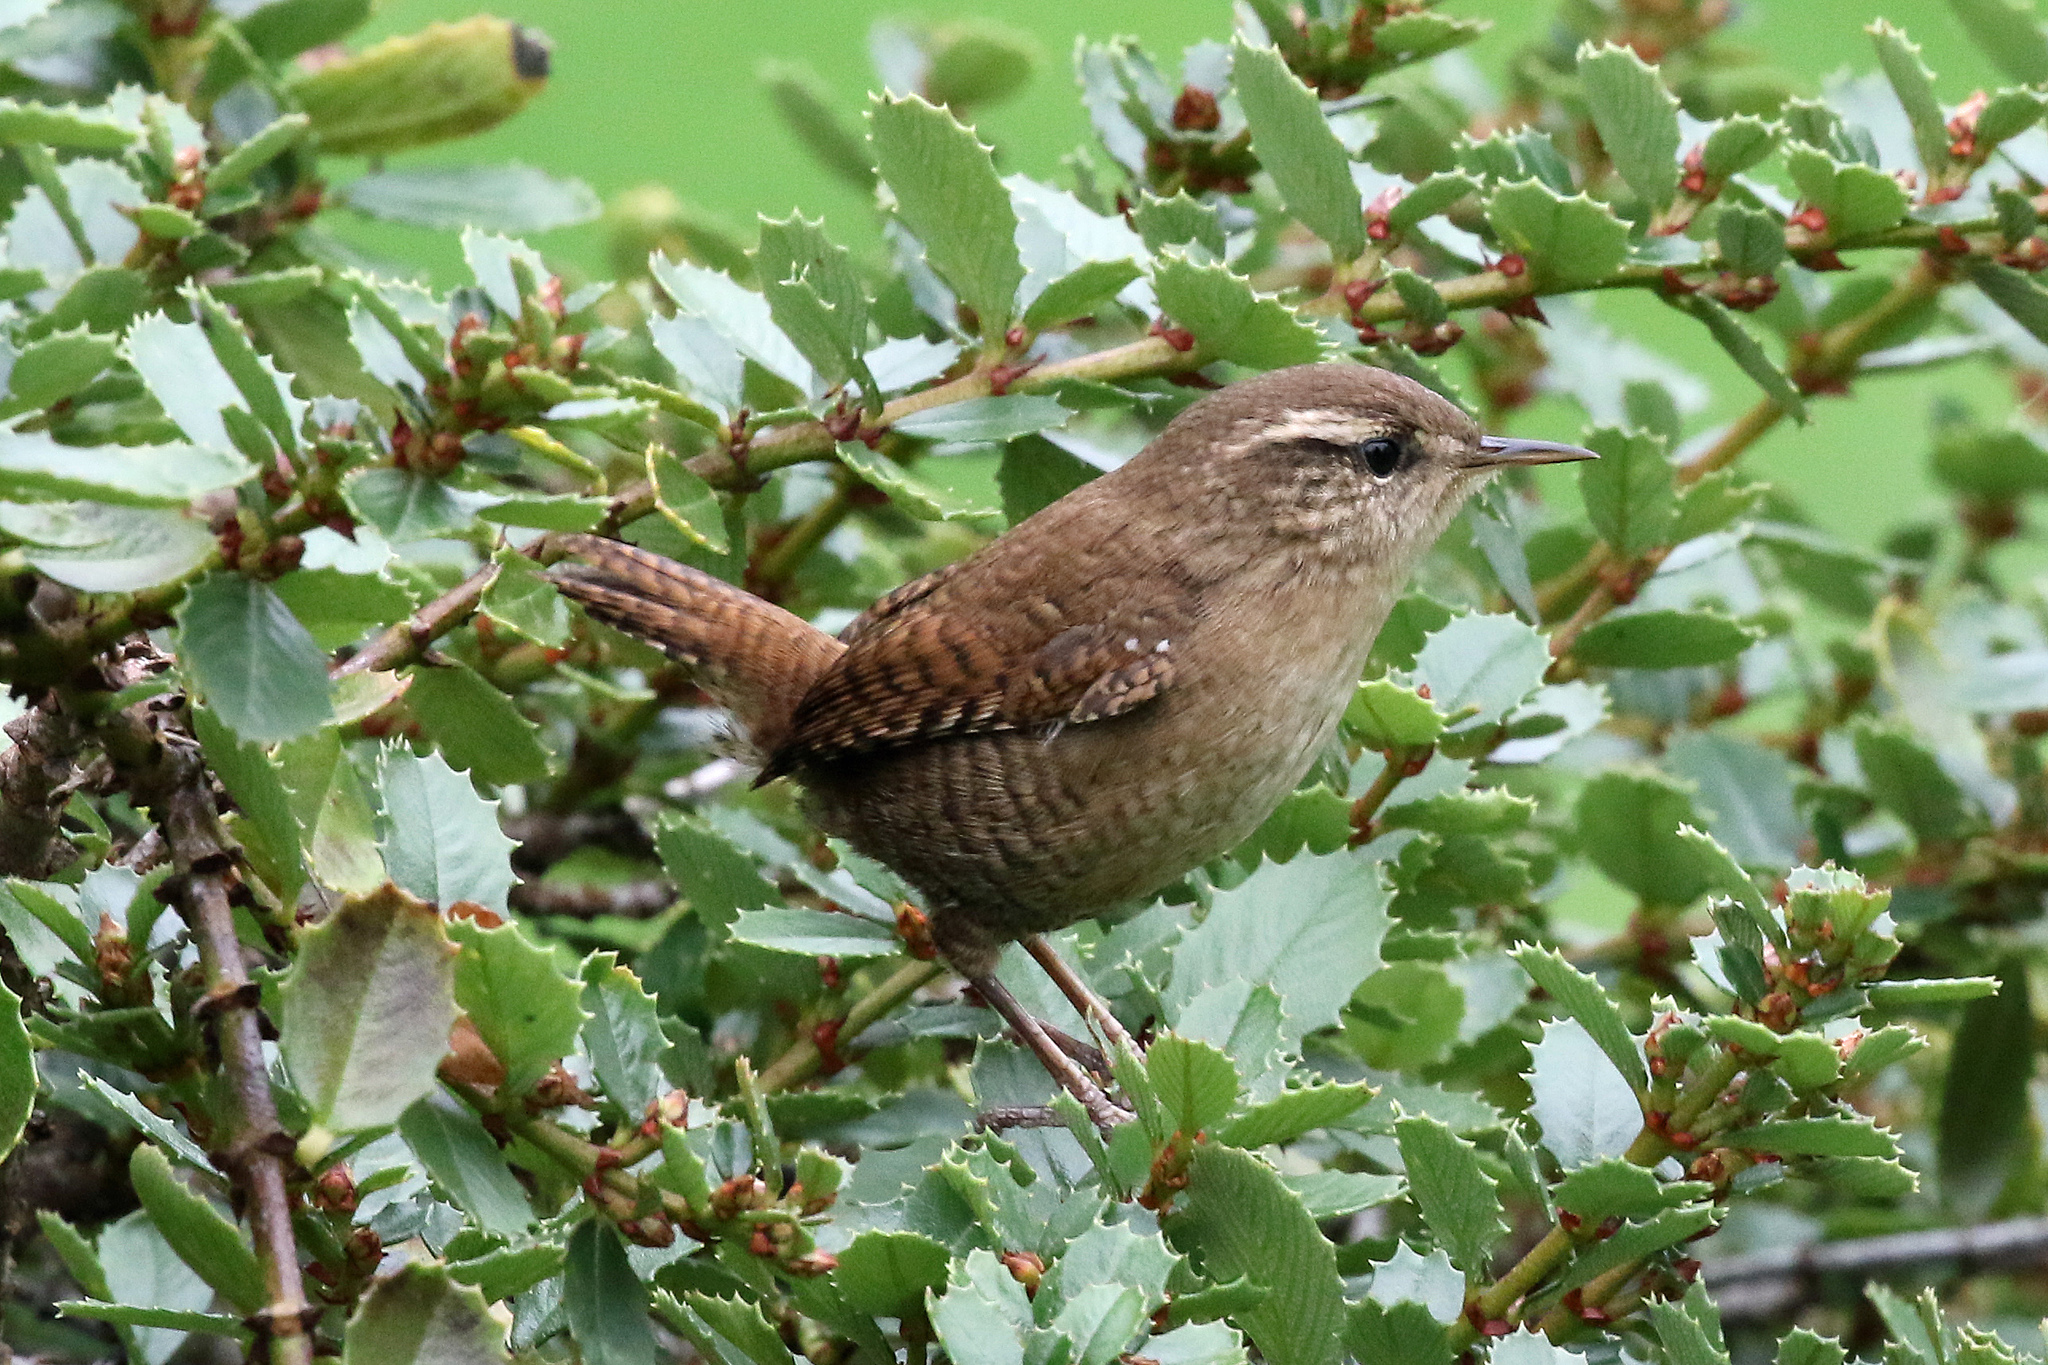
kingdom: Animalia
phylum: Chordata
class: Aves
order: Passeriformes
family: Troglodytidae
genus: Troglodytes
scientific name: Troglodytes troglodytes
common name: Eurasian wren
